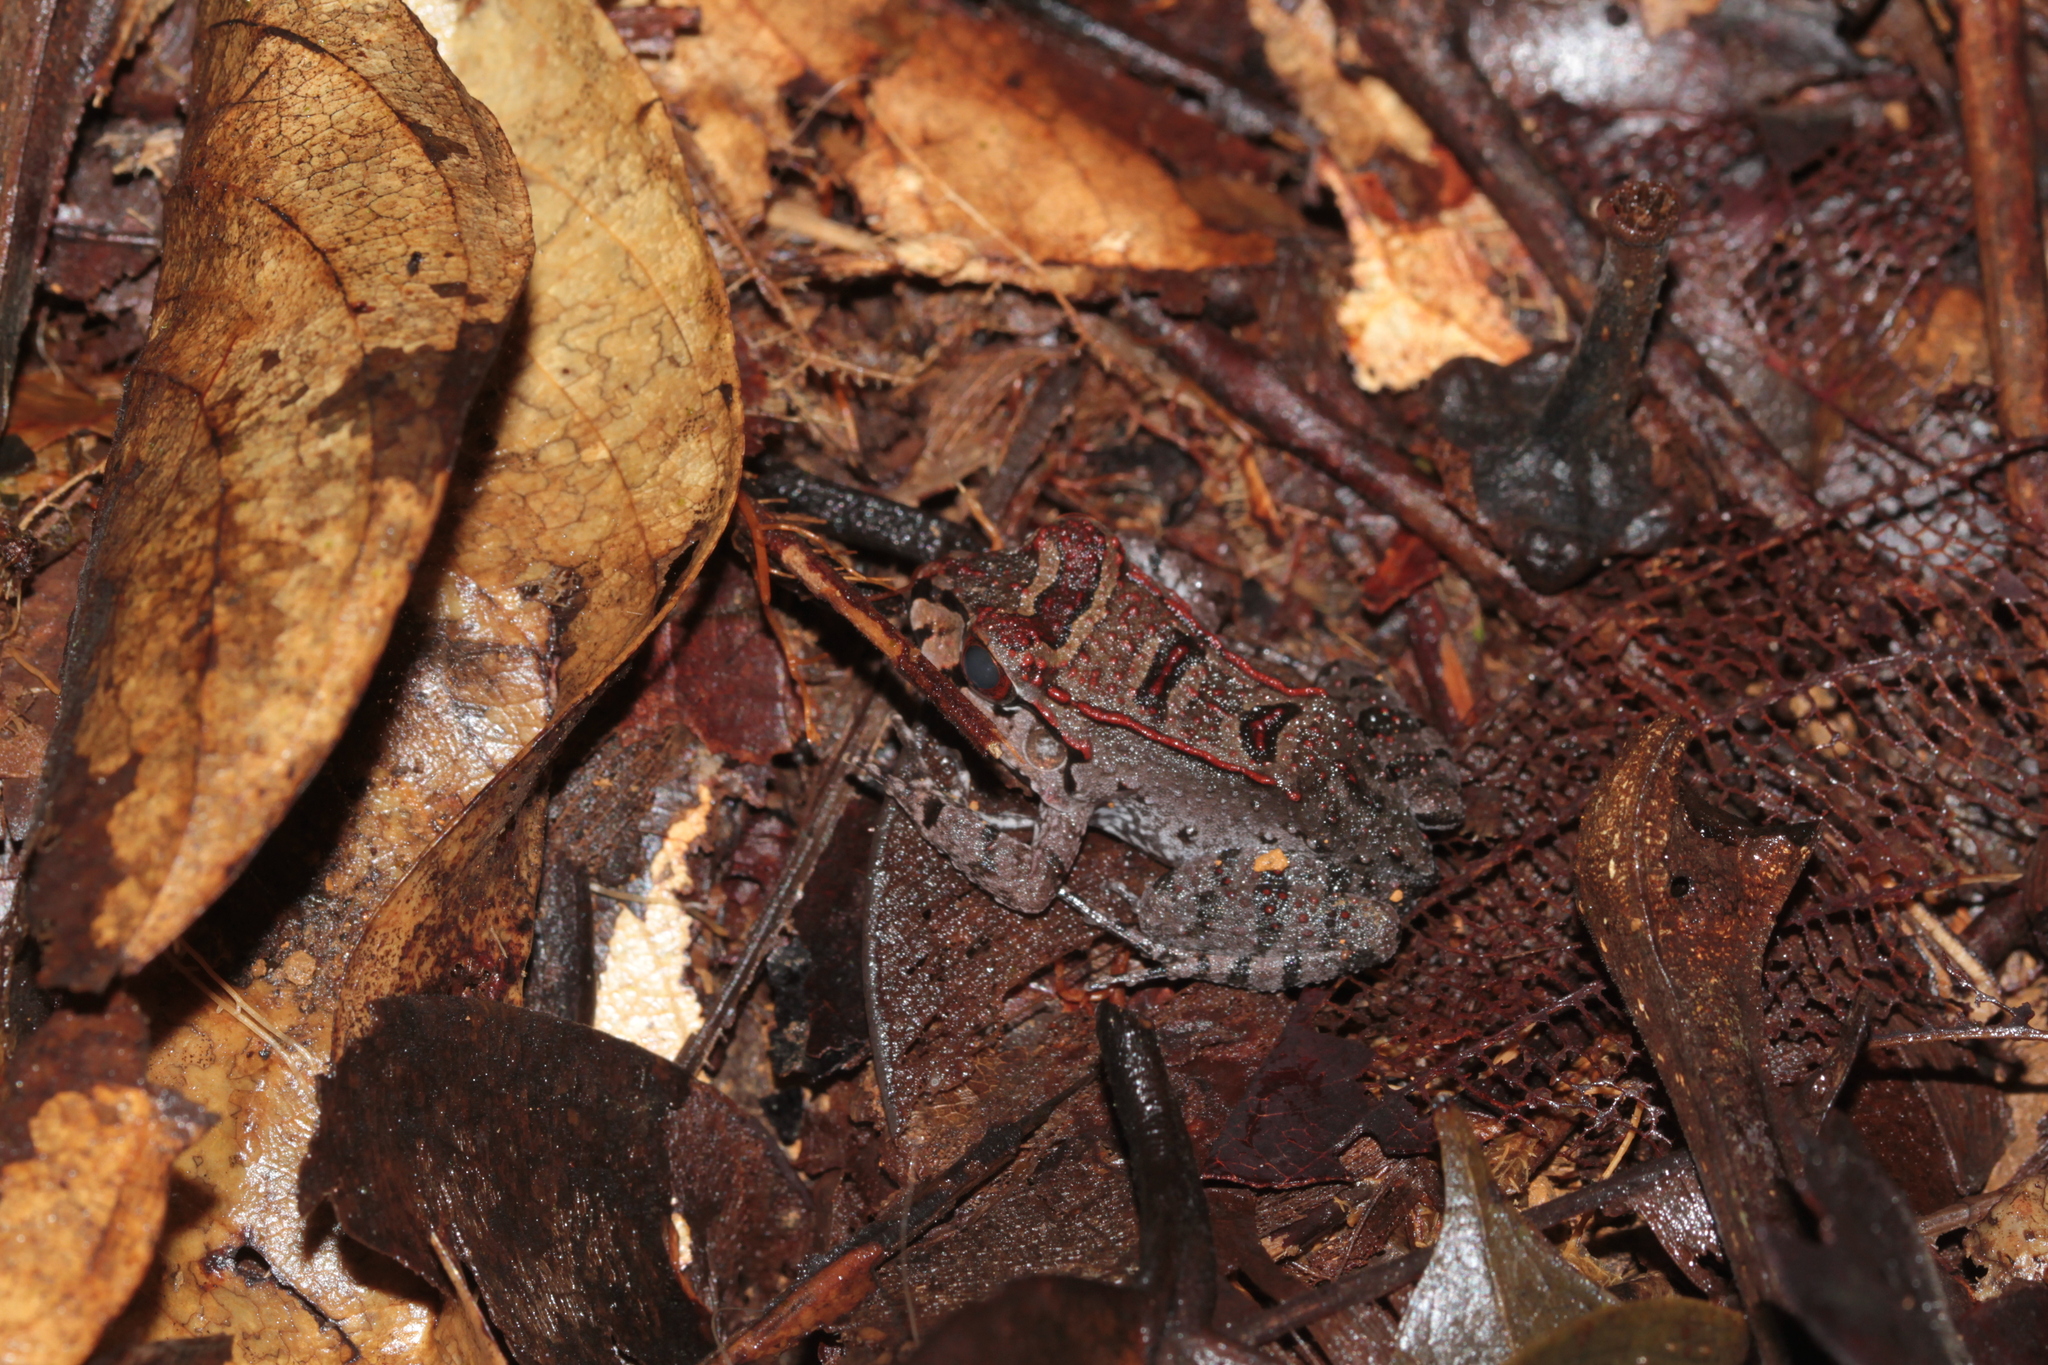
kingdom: Animalia
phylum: Chordata
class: Amphibia
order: Anura
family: Leptodactylidae
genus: Leptodactylus
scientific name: Leptodactylus knudseni
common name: Knudsen's frog
